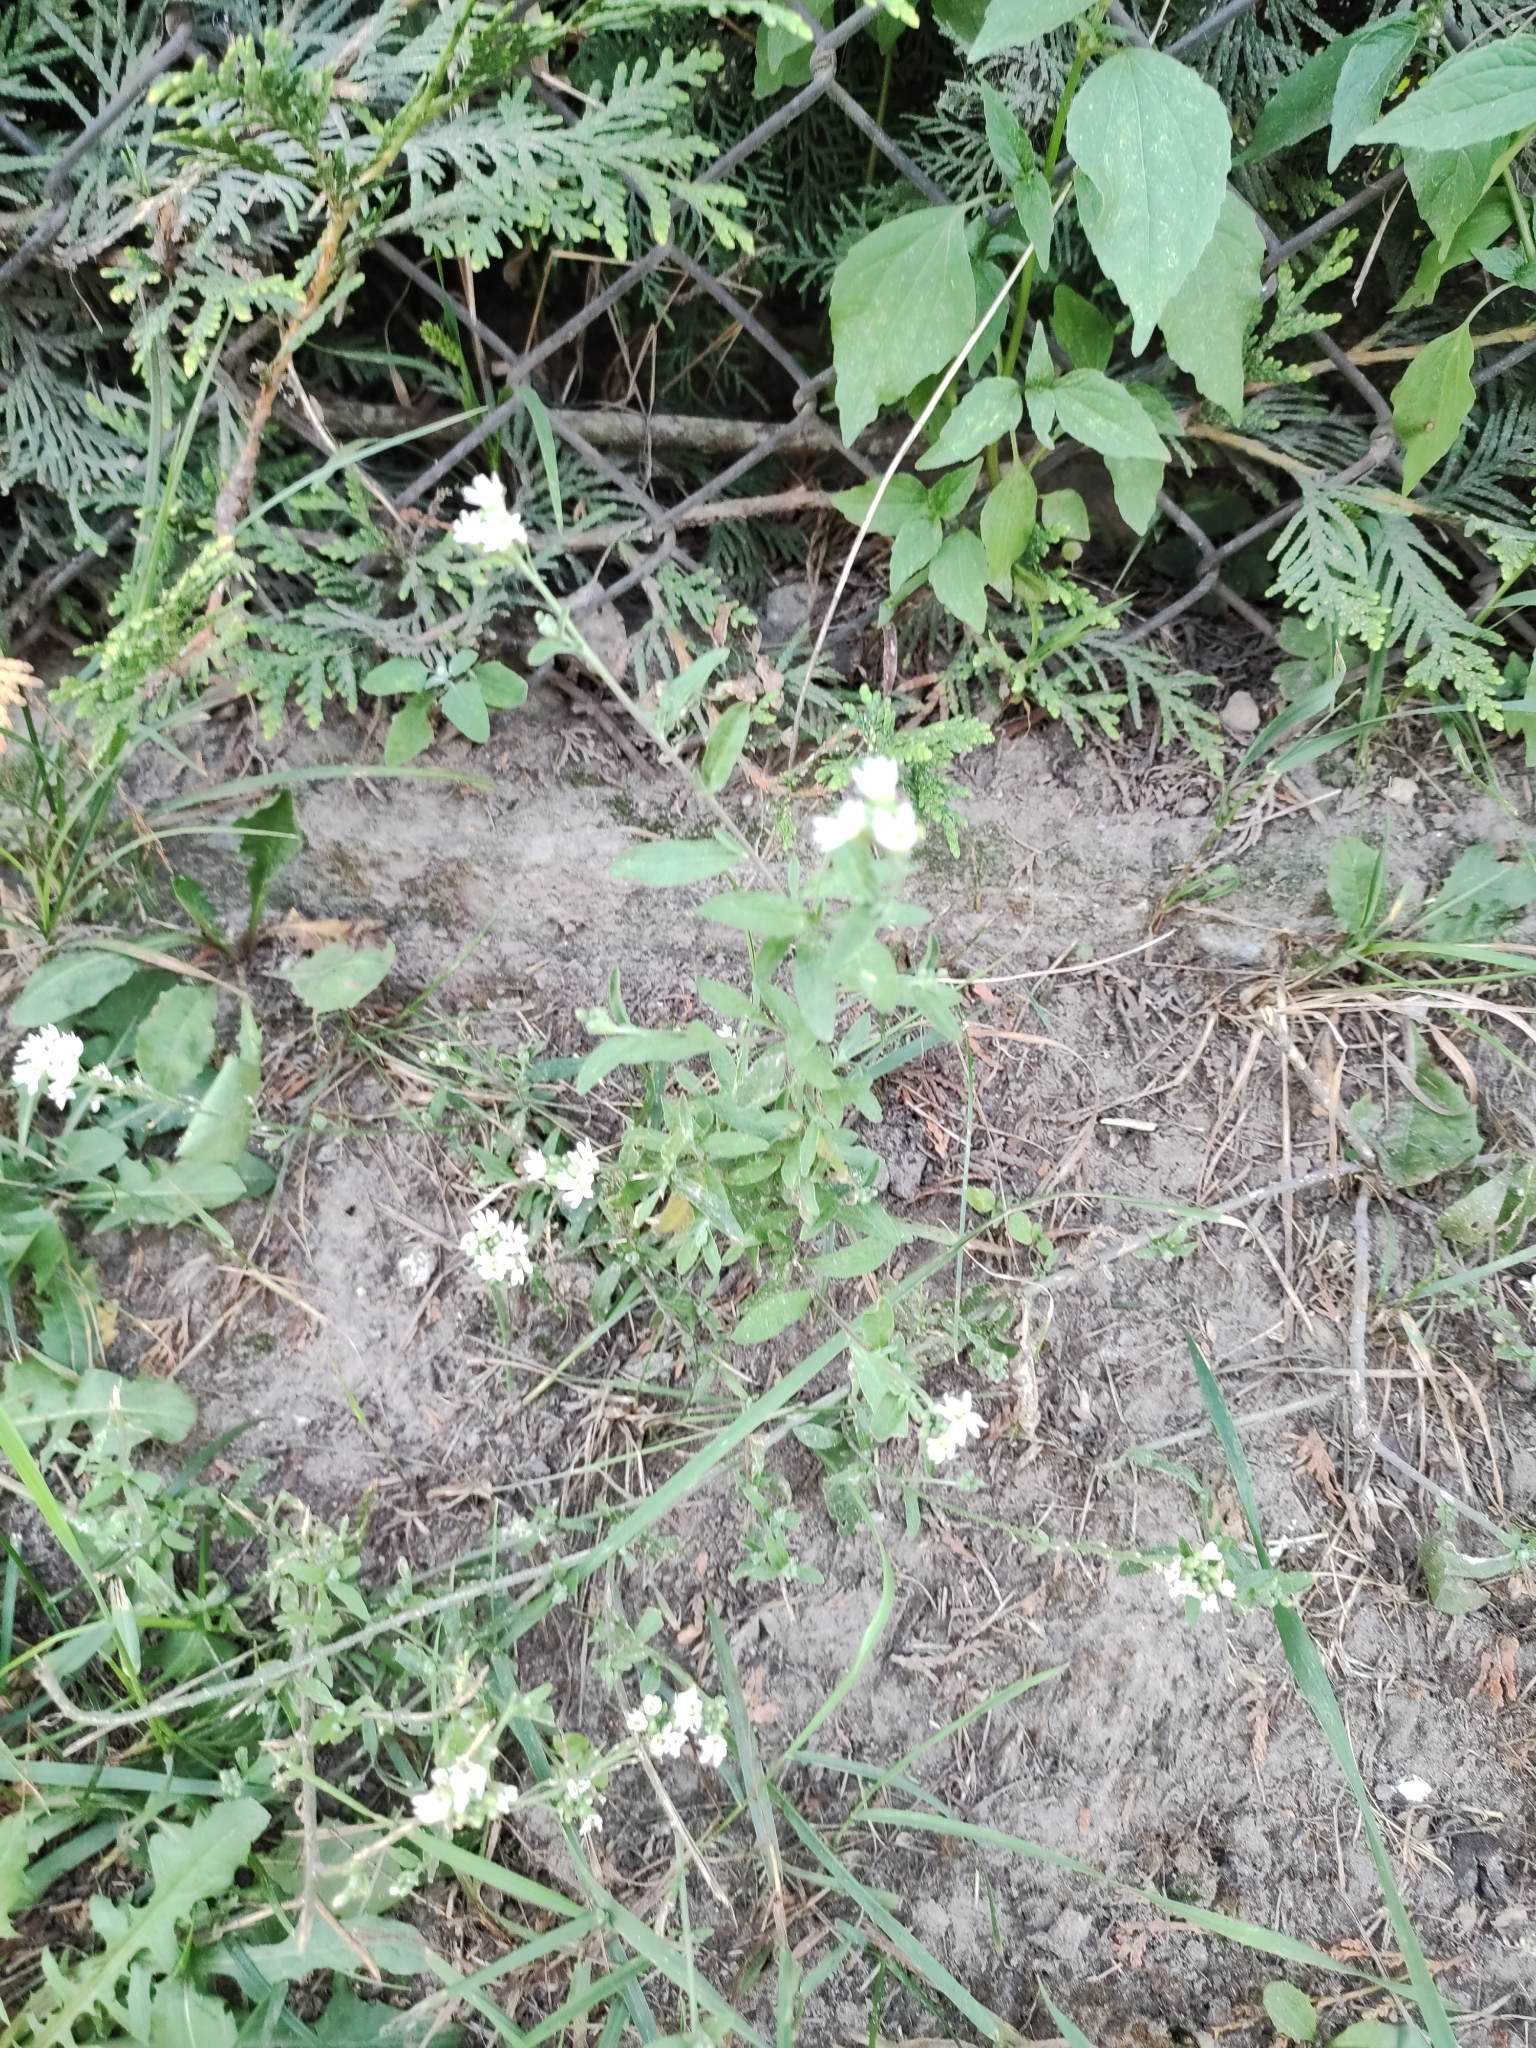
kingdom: Plantae
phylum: Tracheophyta
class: Magnoliopsida
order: Brassicales
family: Brassicaceae
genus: Berteroa
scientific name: Berteroa incana
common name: Hoary alison
